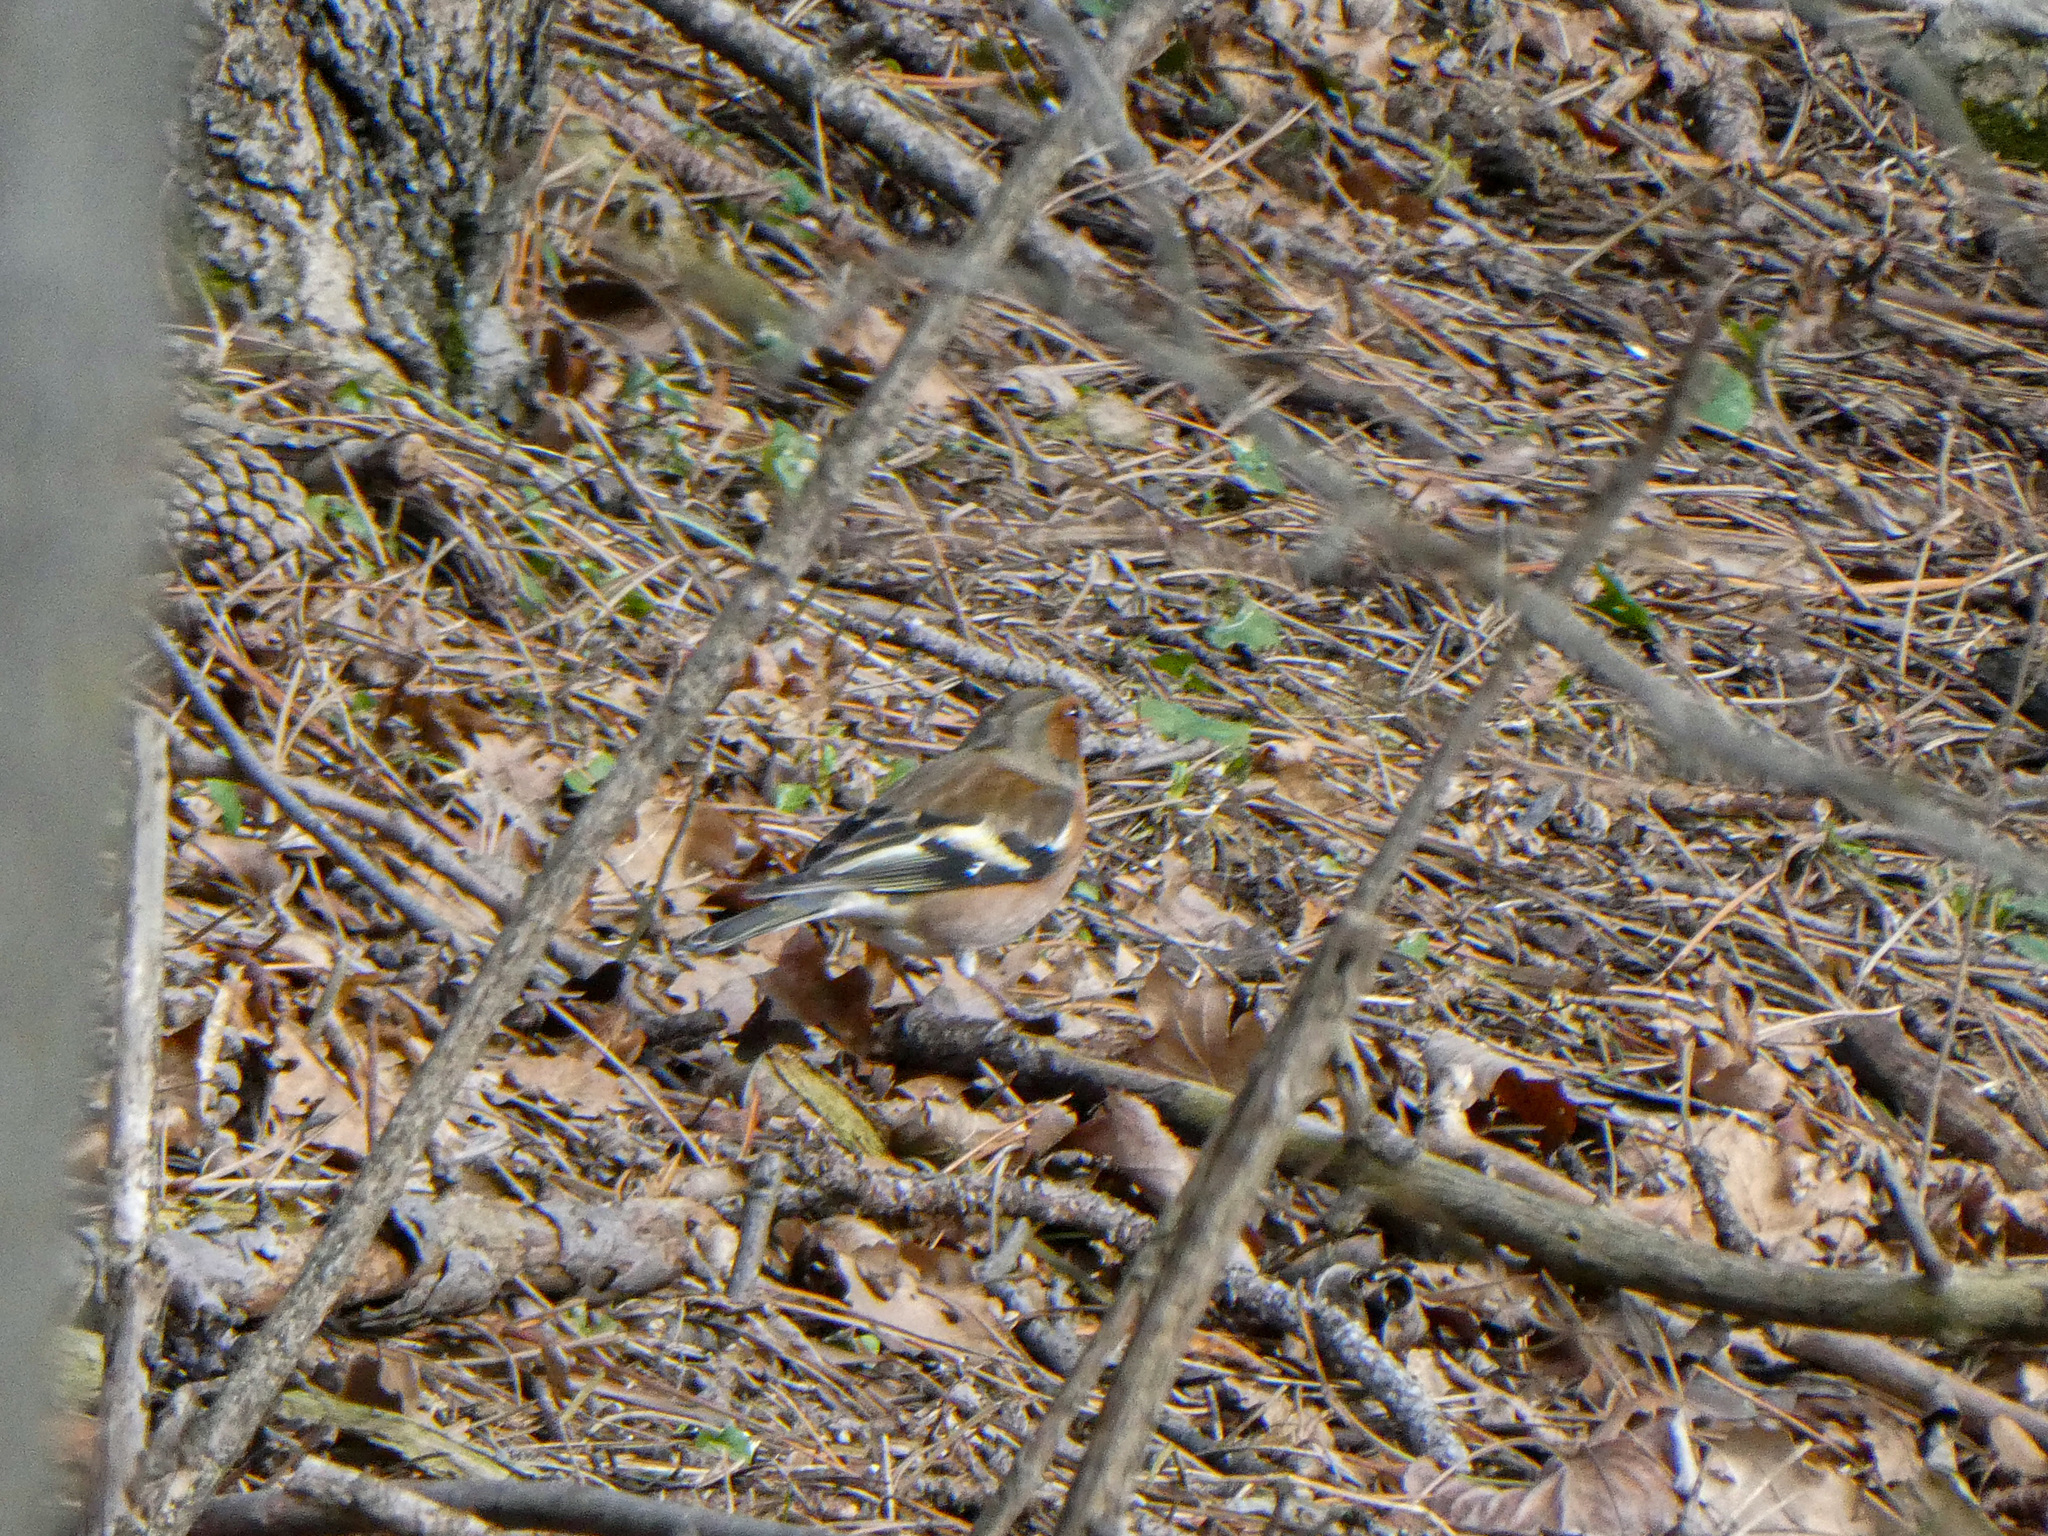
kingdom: Animalia
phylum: Chordata
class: Aves
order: Passeriformes
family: Fringillidae
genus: Fringilla
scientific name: Fringilla coelebs
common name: Common chaffinch
